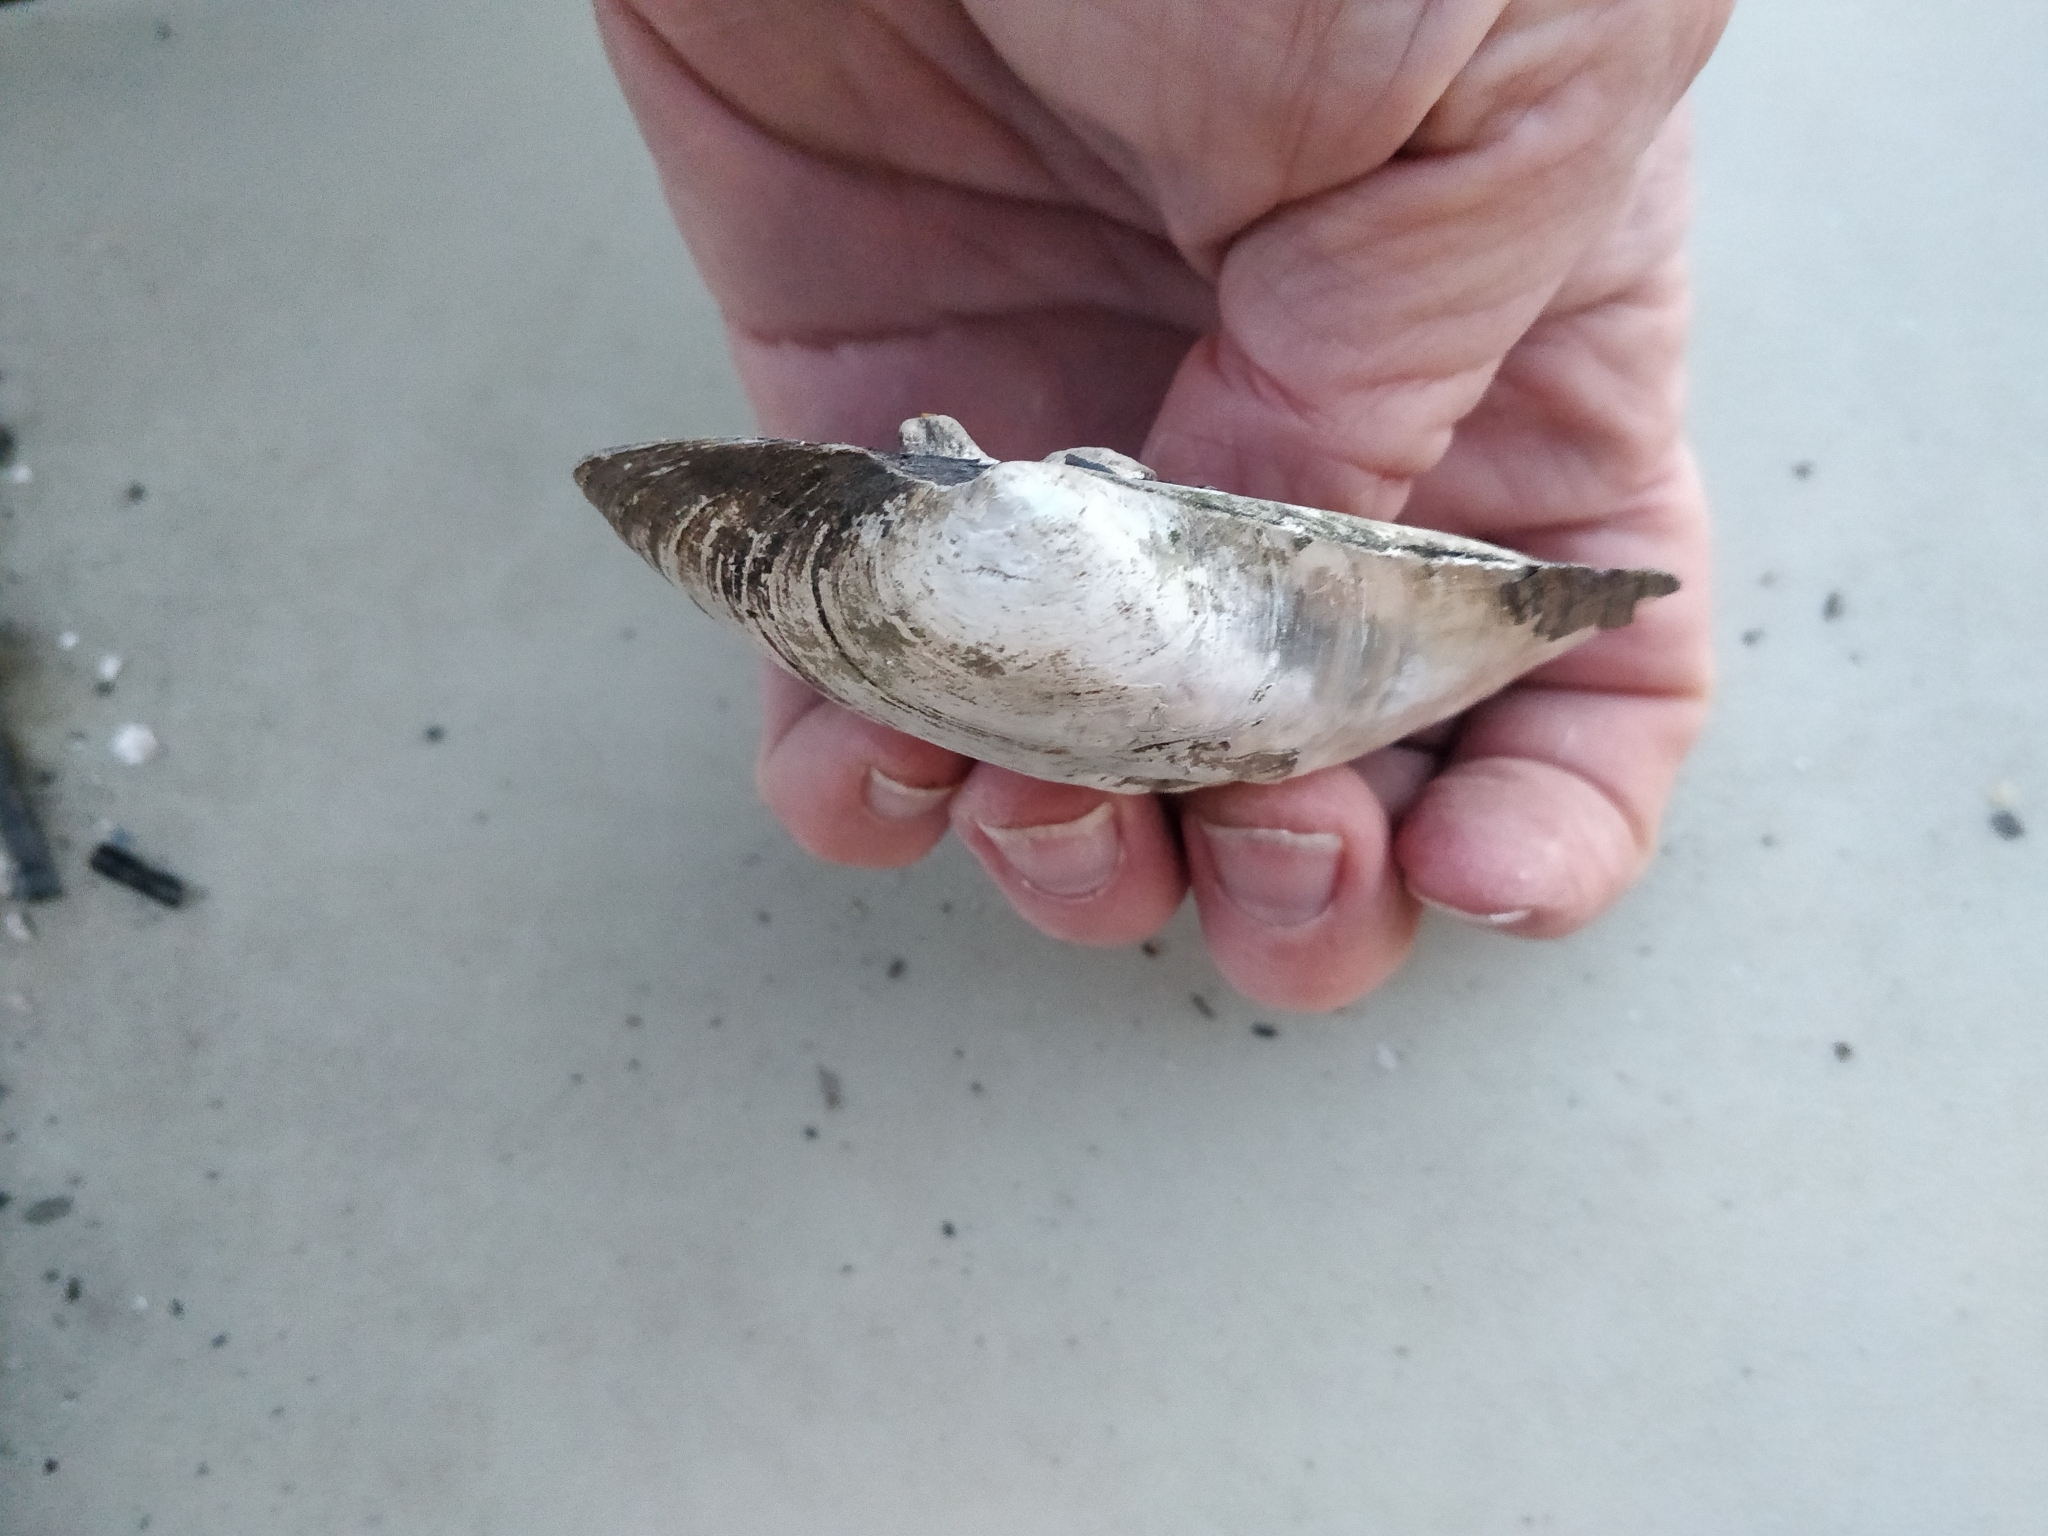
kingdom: Animalia
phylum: Mollusca
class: Bivalvia
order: Unionida
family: Unionidae
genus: Amblema
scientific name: Amblema plicata
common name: Threeridge
